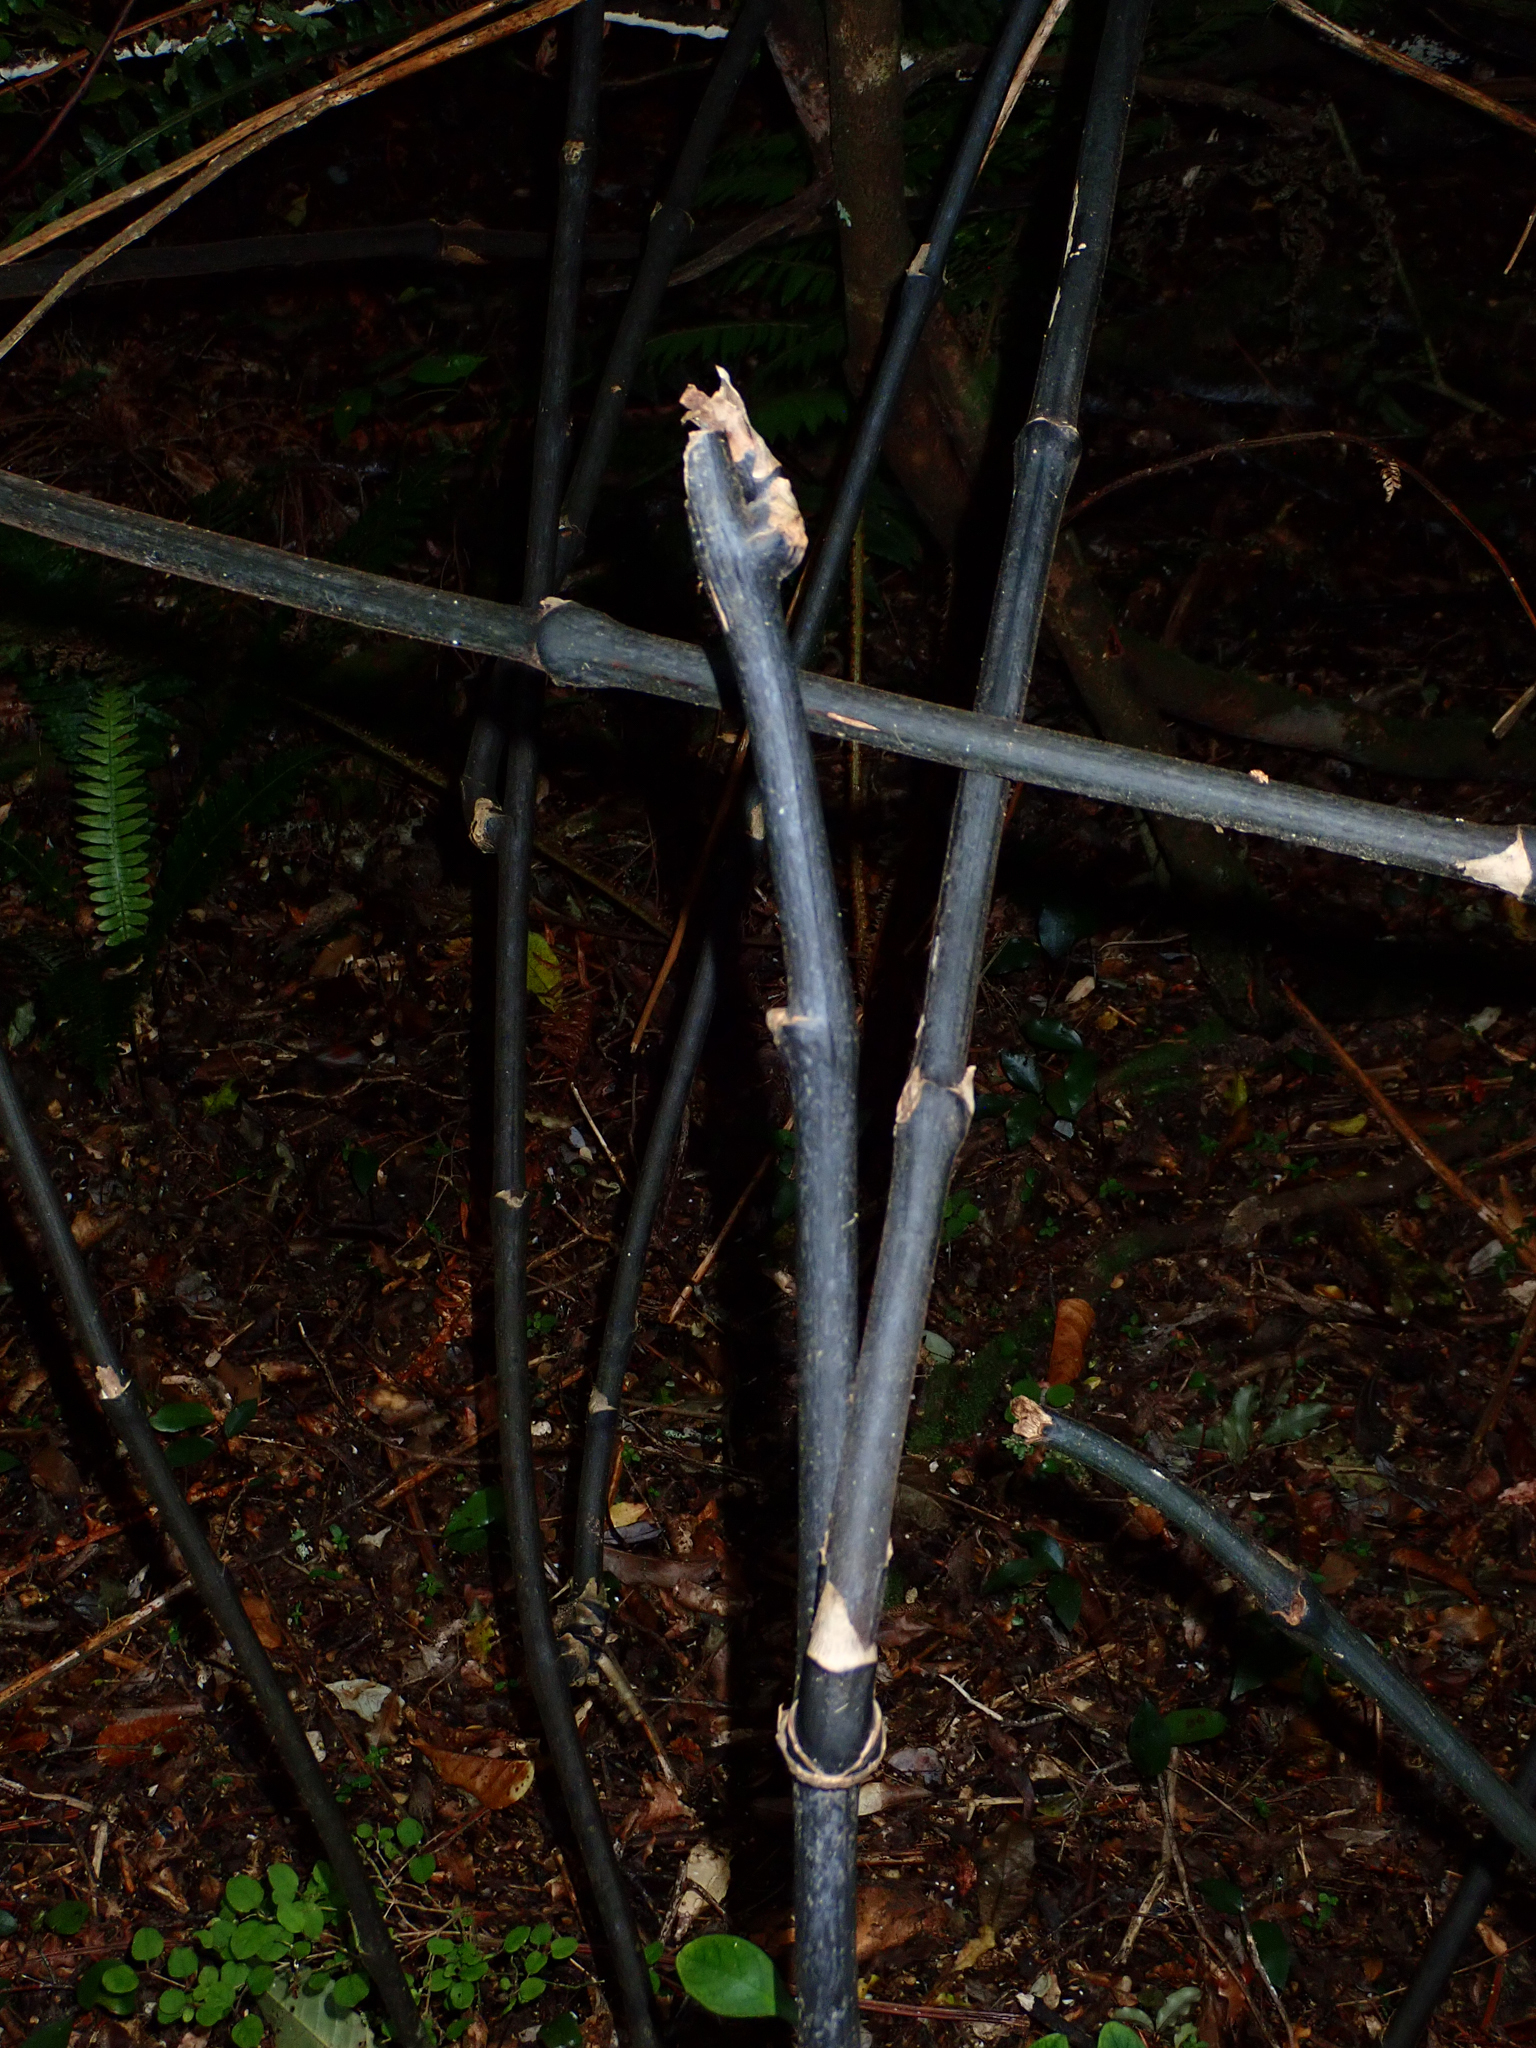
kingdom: Plantae
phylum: Tracheophyta
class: Liliopsida
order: Liliales
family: Ripogonaceae
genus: Ripogonum
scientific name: Ripogonum scandens
